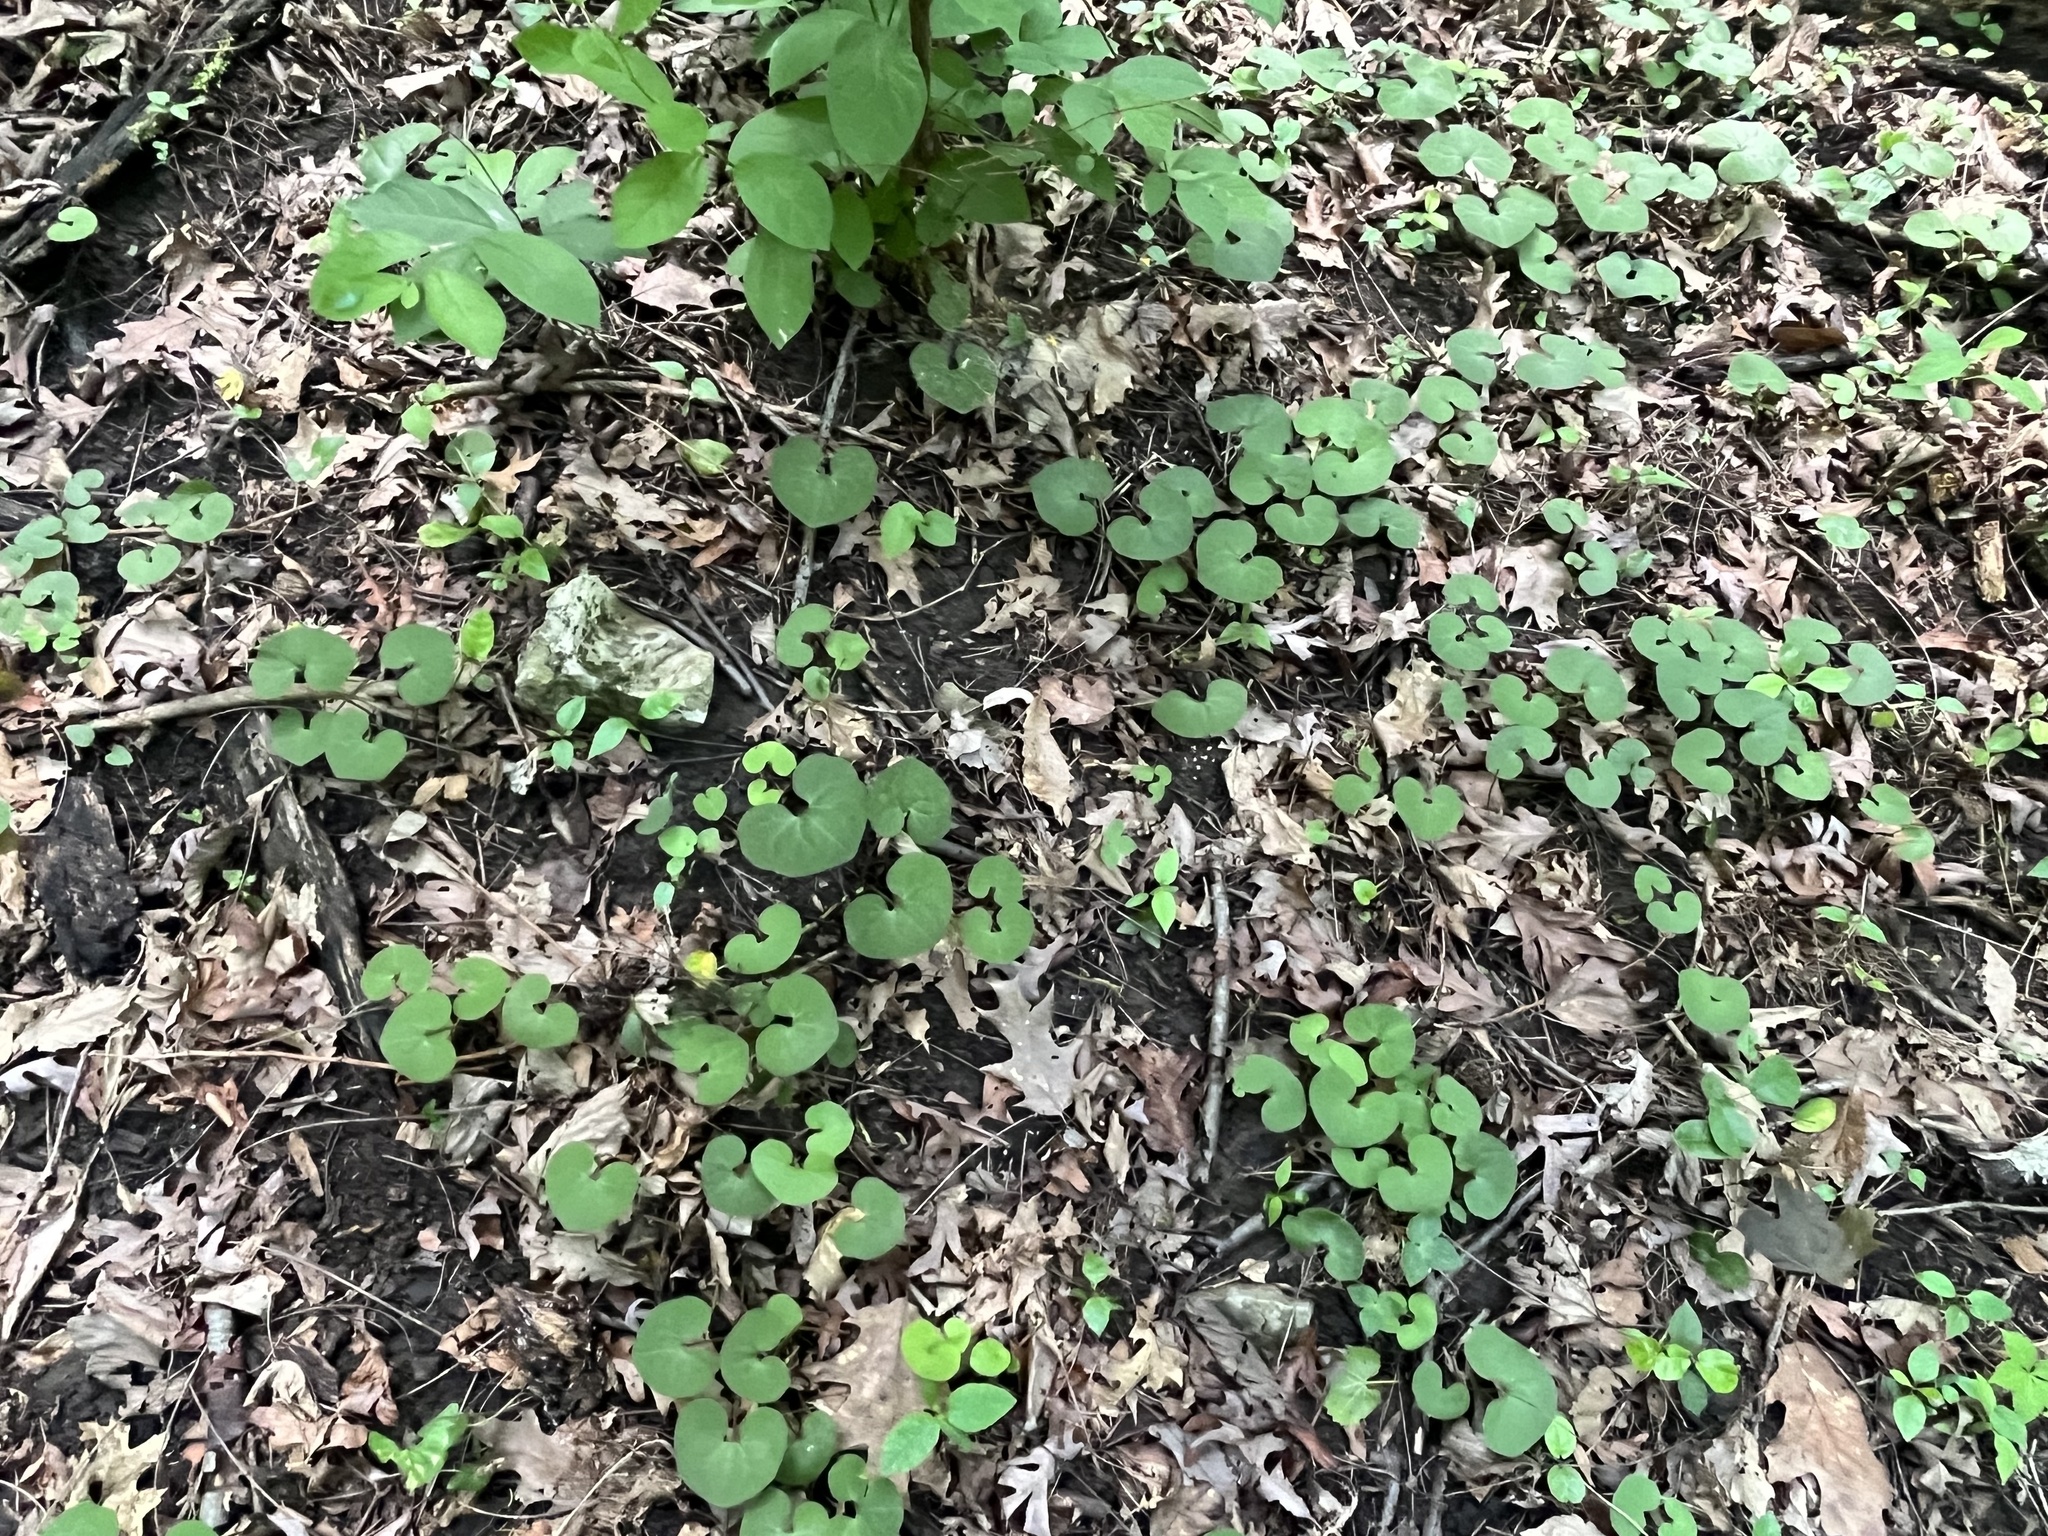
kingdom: Plantae
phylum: Tracheophyta
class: Magnoliopsida
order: Piperales
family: Aristolochiaceae
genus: Asarum
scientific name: Asarum canadense
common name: Wild ginger
